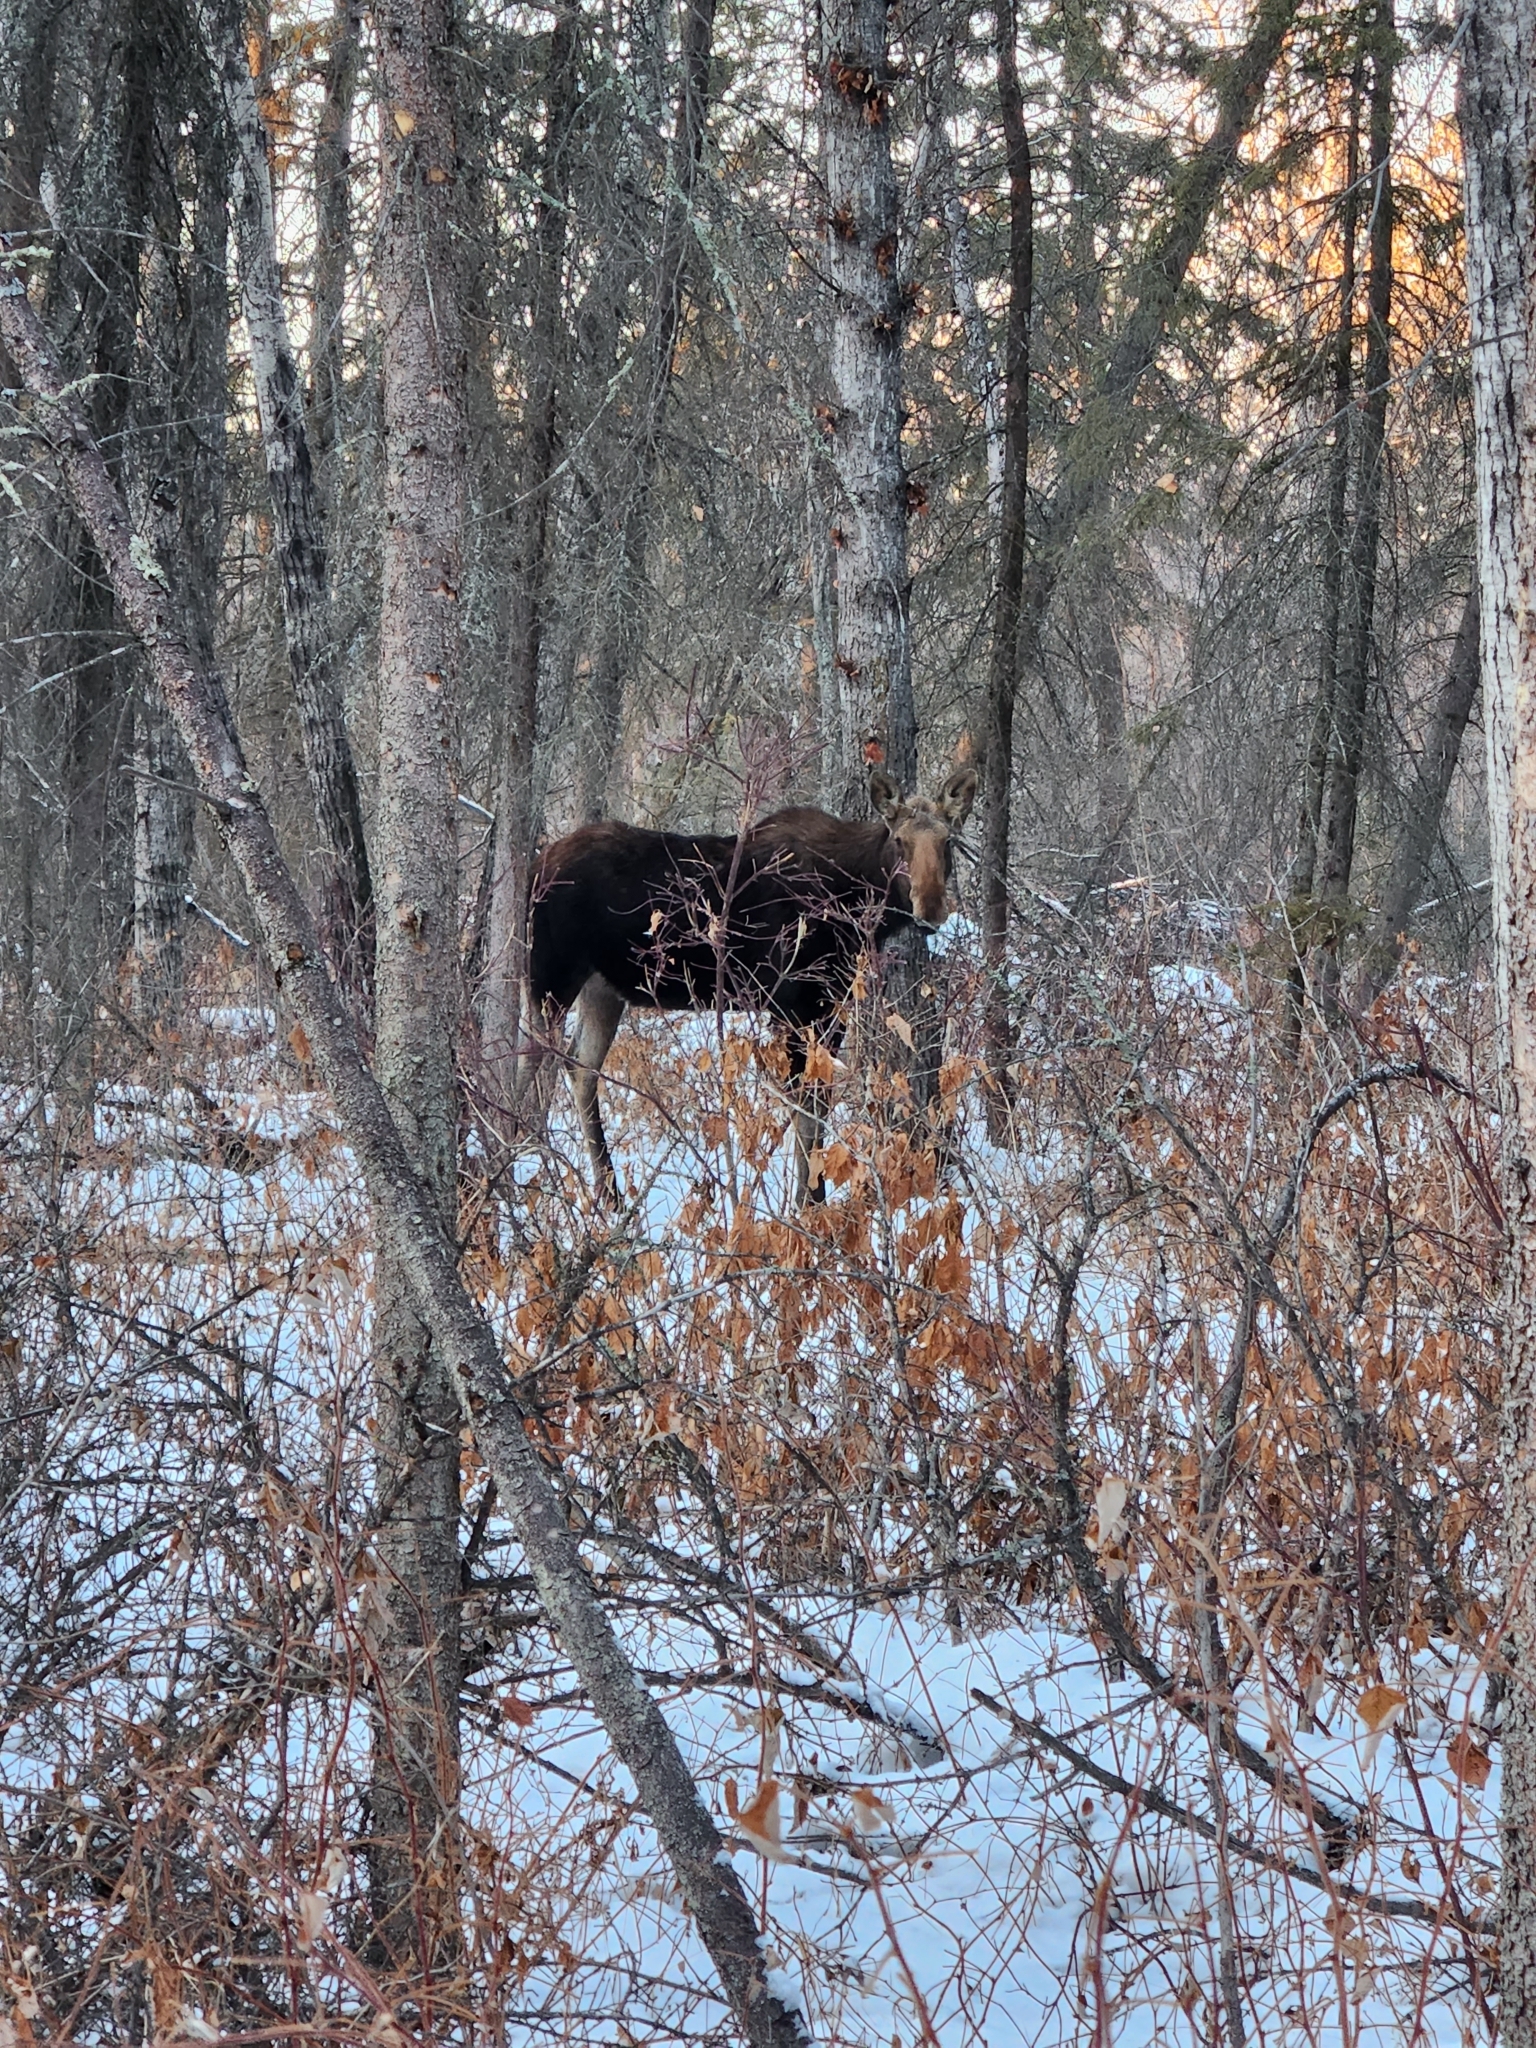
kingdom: Animalia
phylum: Chordata
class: Mammalia
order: Artiodactyla
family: Cervidae
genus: Alces
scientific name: Alces alces
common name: Moose
